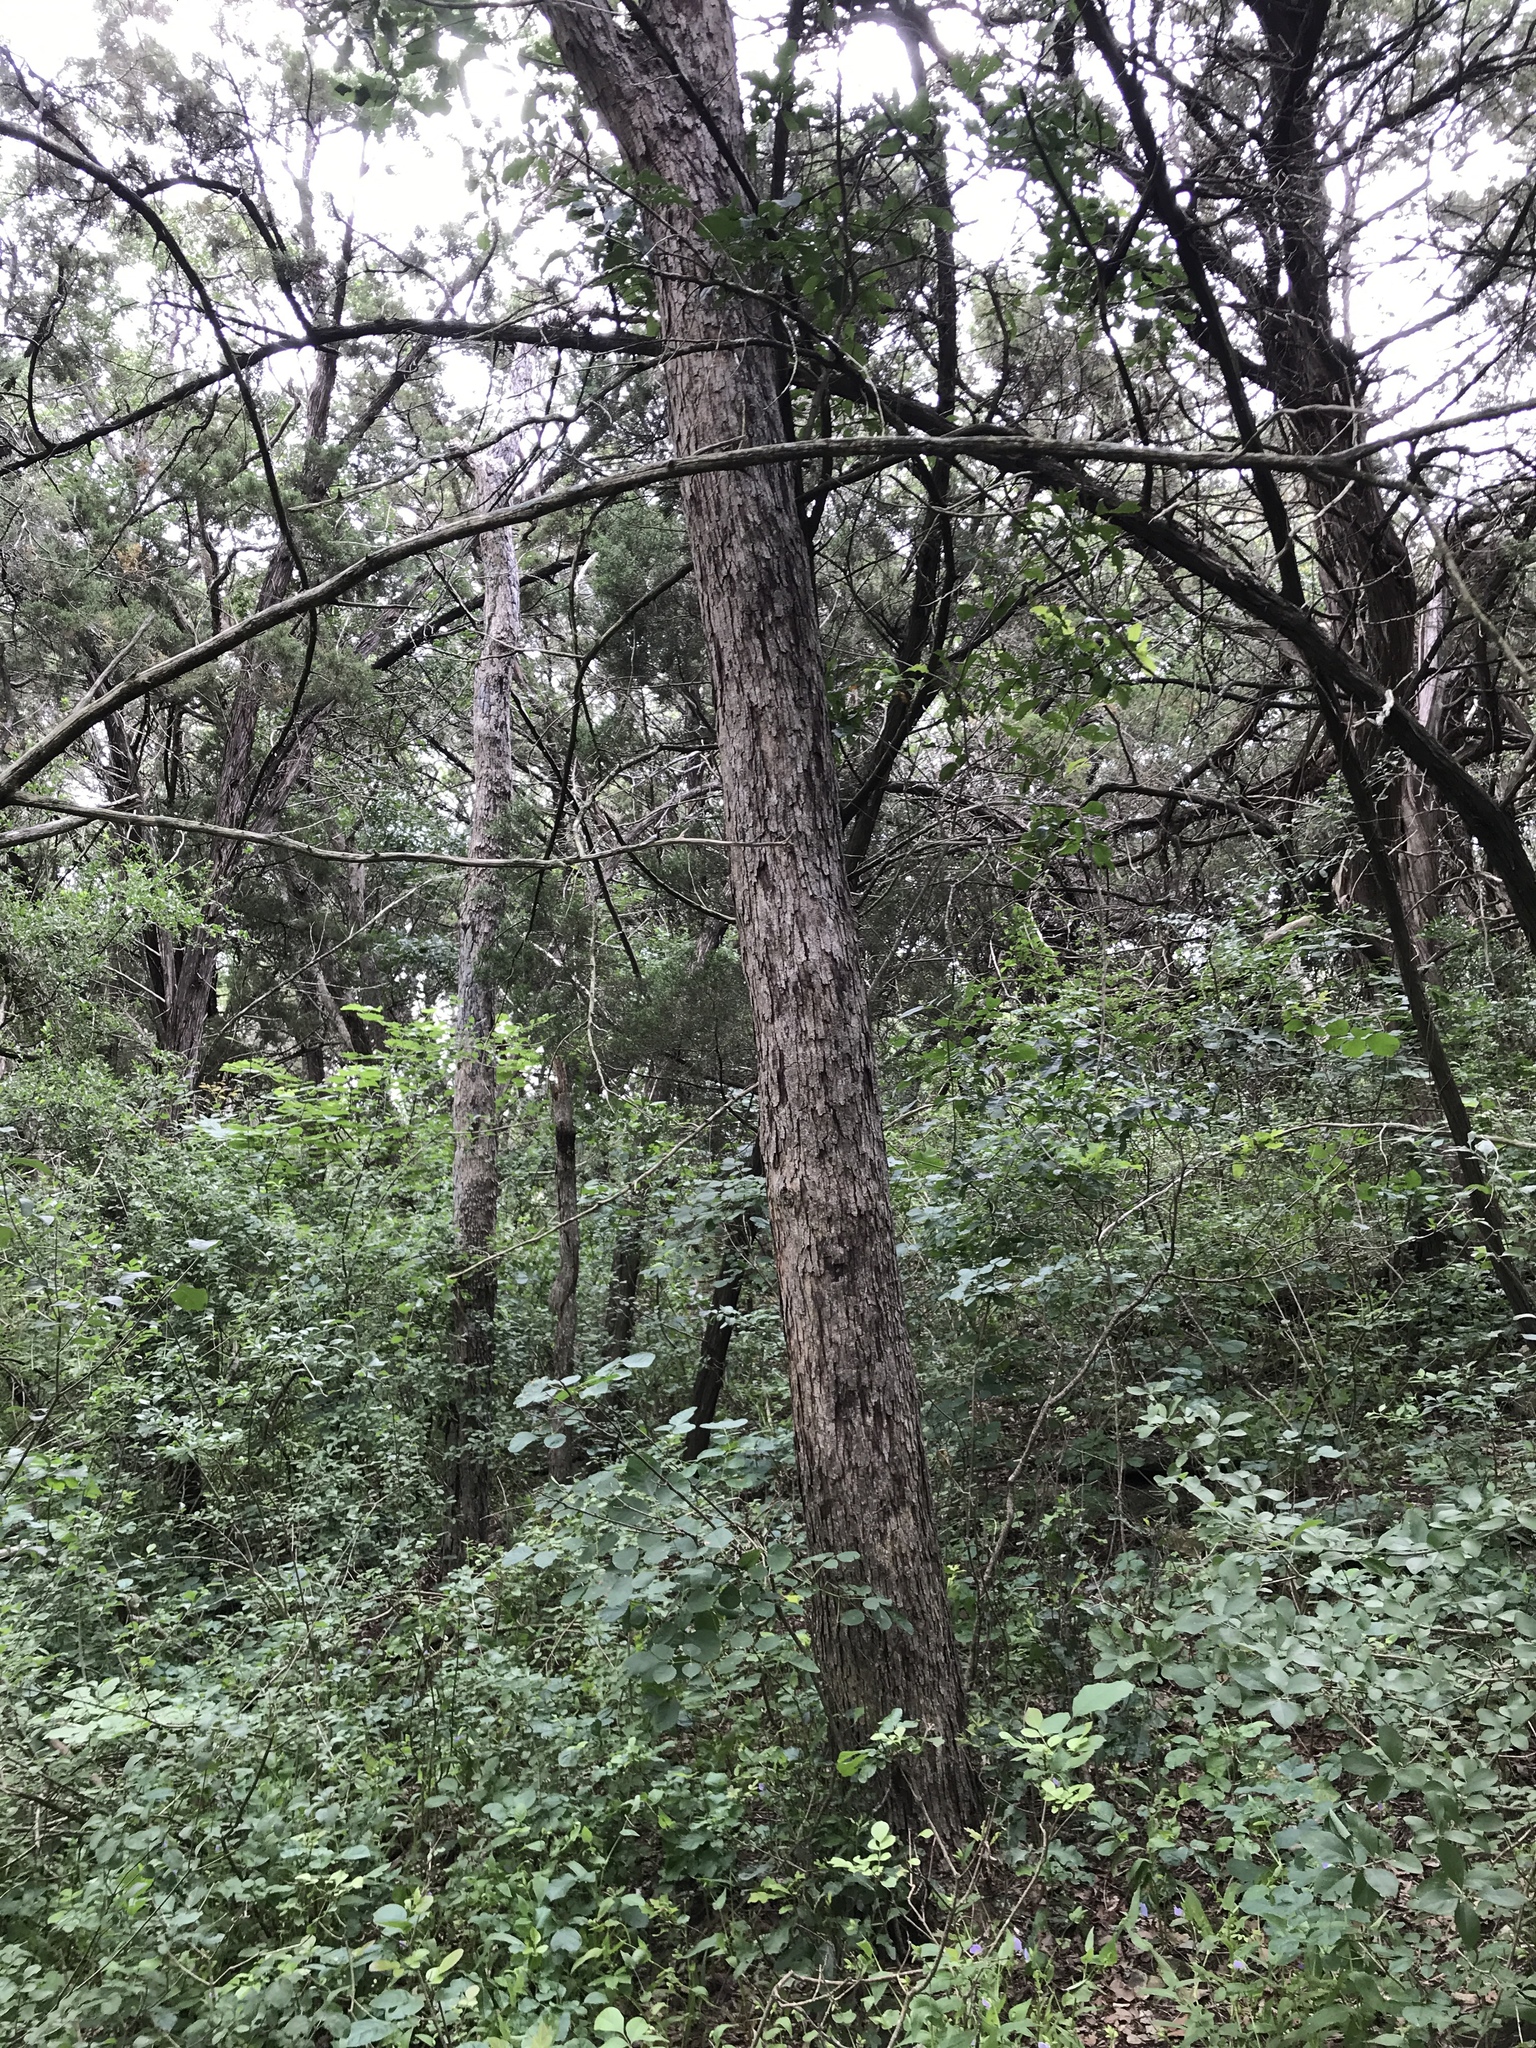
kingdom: Plantae
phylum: Tracheophyta
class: Magnoliopsida
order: Fagales
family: Fagaceae
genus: Quercus
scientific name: Quercus sinuata
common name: Durand oak
